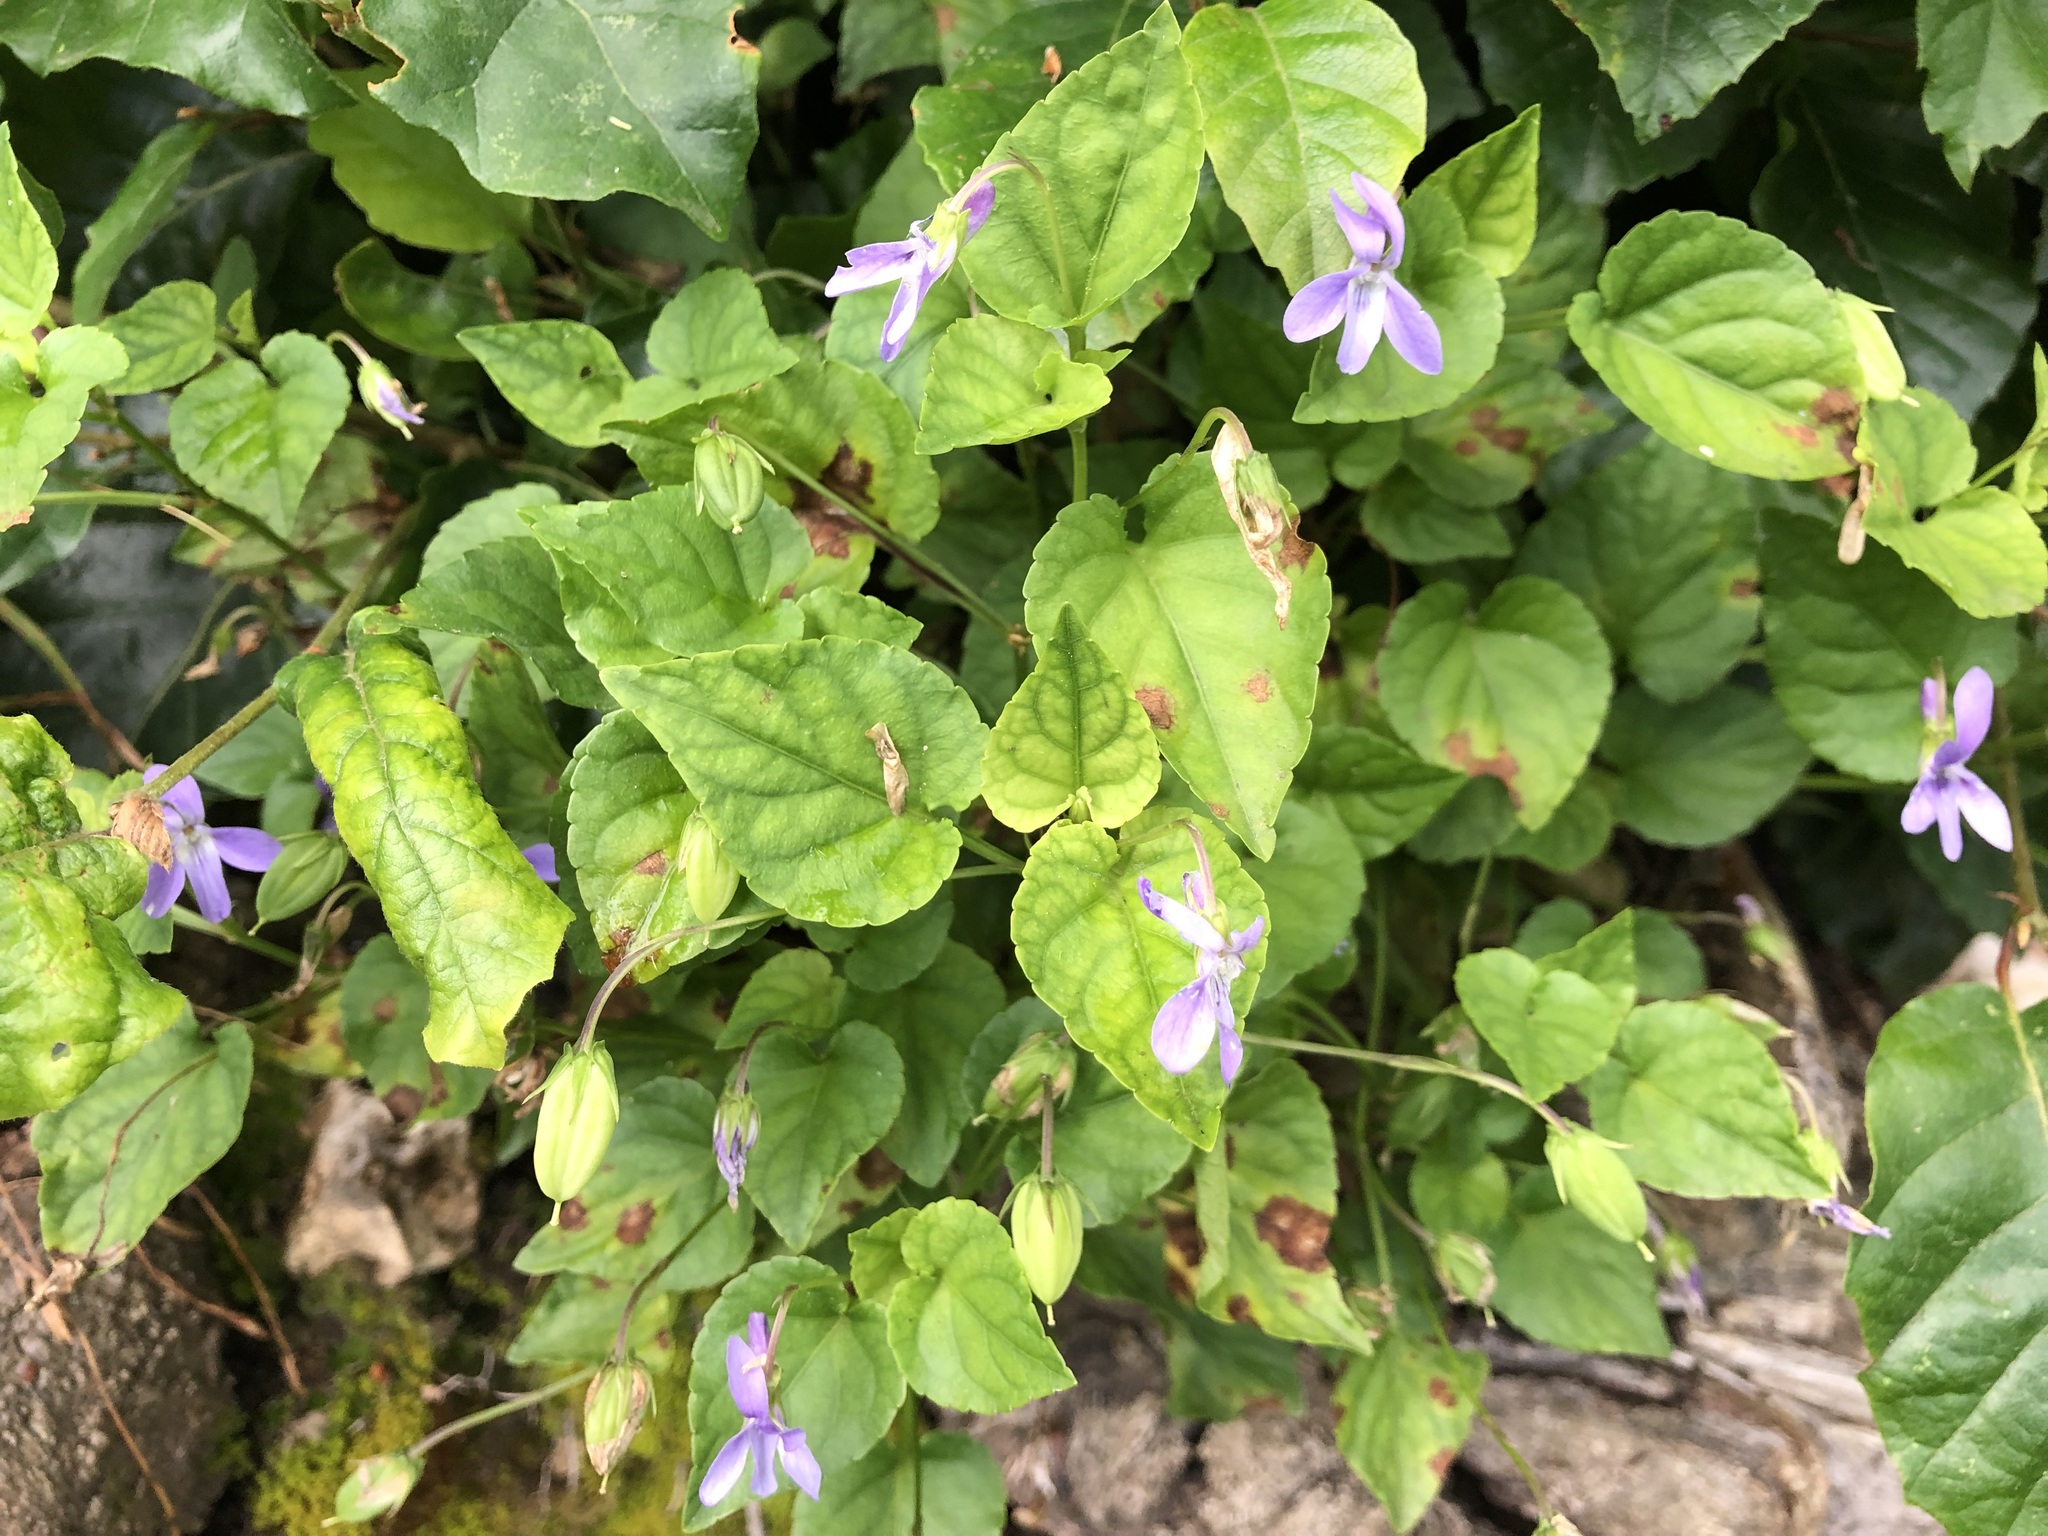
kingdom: Plantae
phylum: Tracheophyta
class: Magnoliopsida
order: Malpighiales
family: Violaceae
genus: Viola
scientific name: Viola reichenbachiana
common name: Early dog-violet
